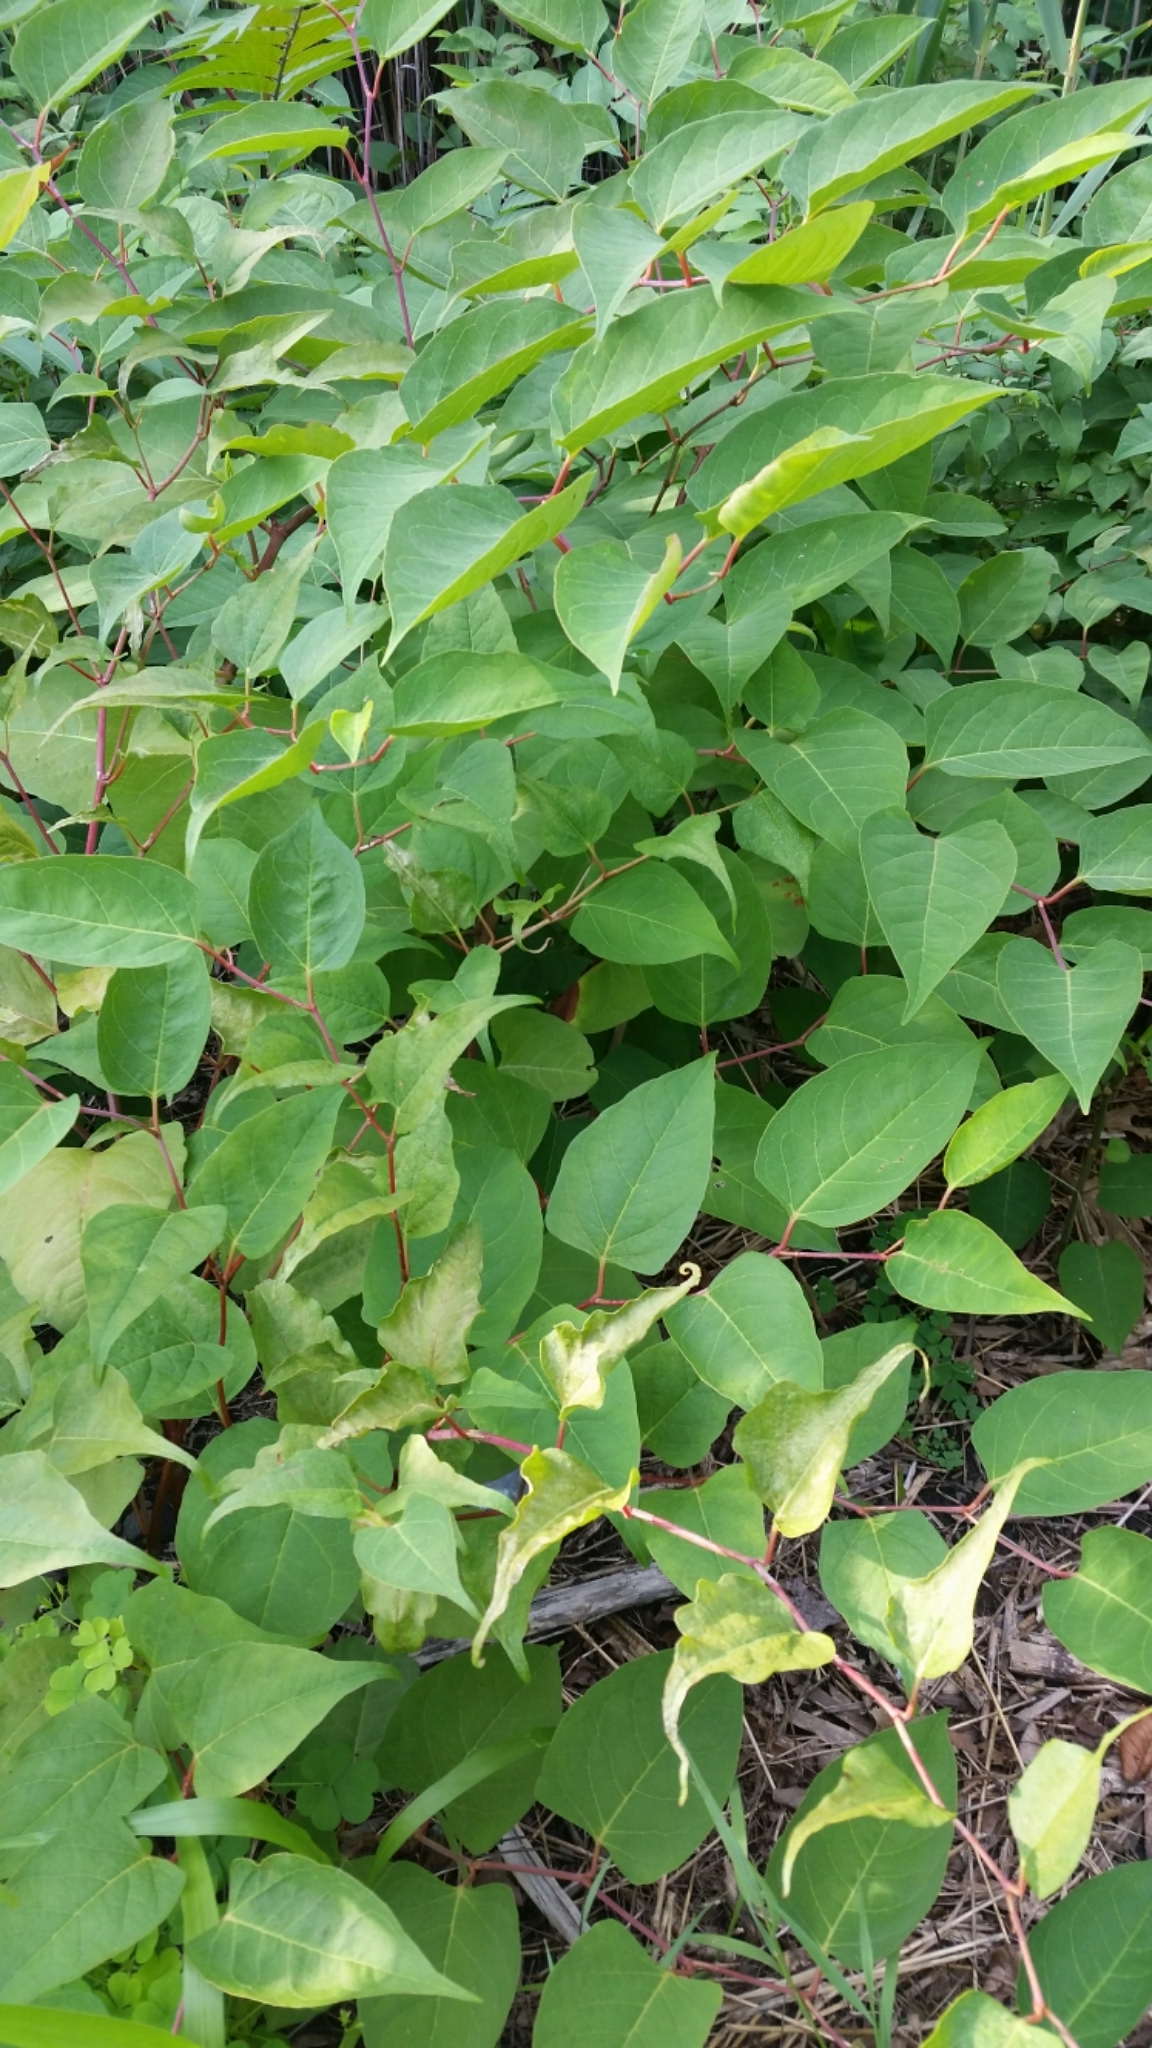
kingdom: Plantae
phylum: Tracheophyta
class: Magnoliopsida
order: Caryophyllales
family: Polygonaceae
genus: Reynoutria
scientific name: Reynoutria japonica
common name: Japanese knotweed
